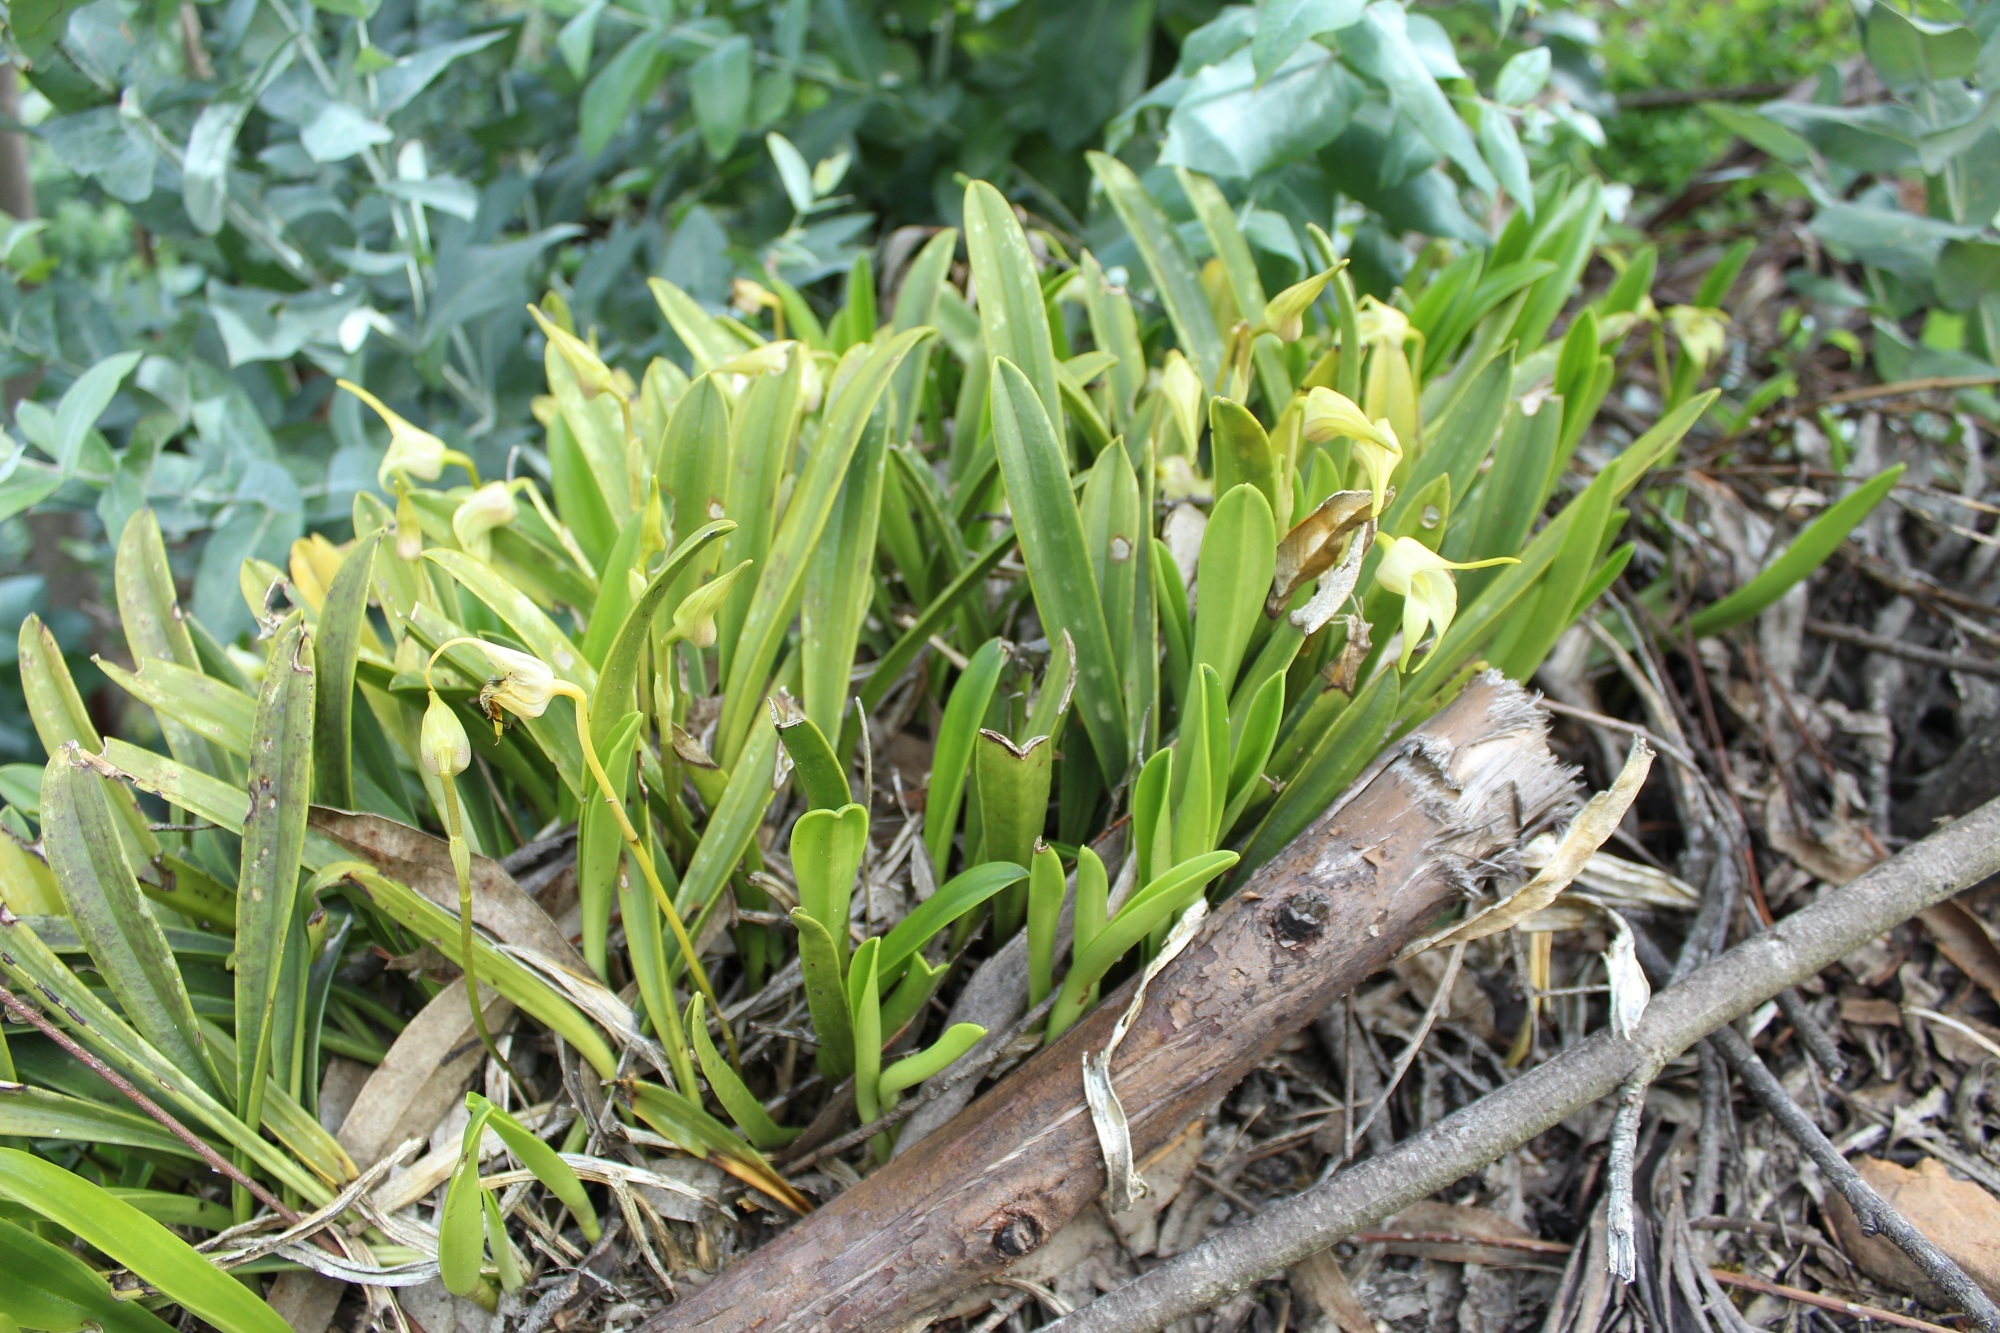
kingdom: Plantae
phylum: Tracheophyta
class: Liliopsida
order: Asparagales
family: Orchidaceae
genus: Masdevallia
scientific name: Masdevallia coriacea
